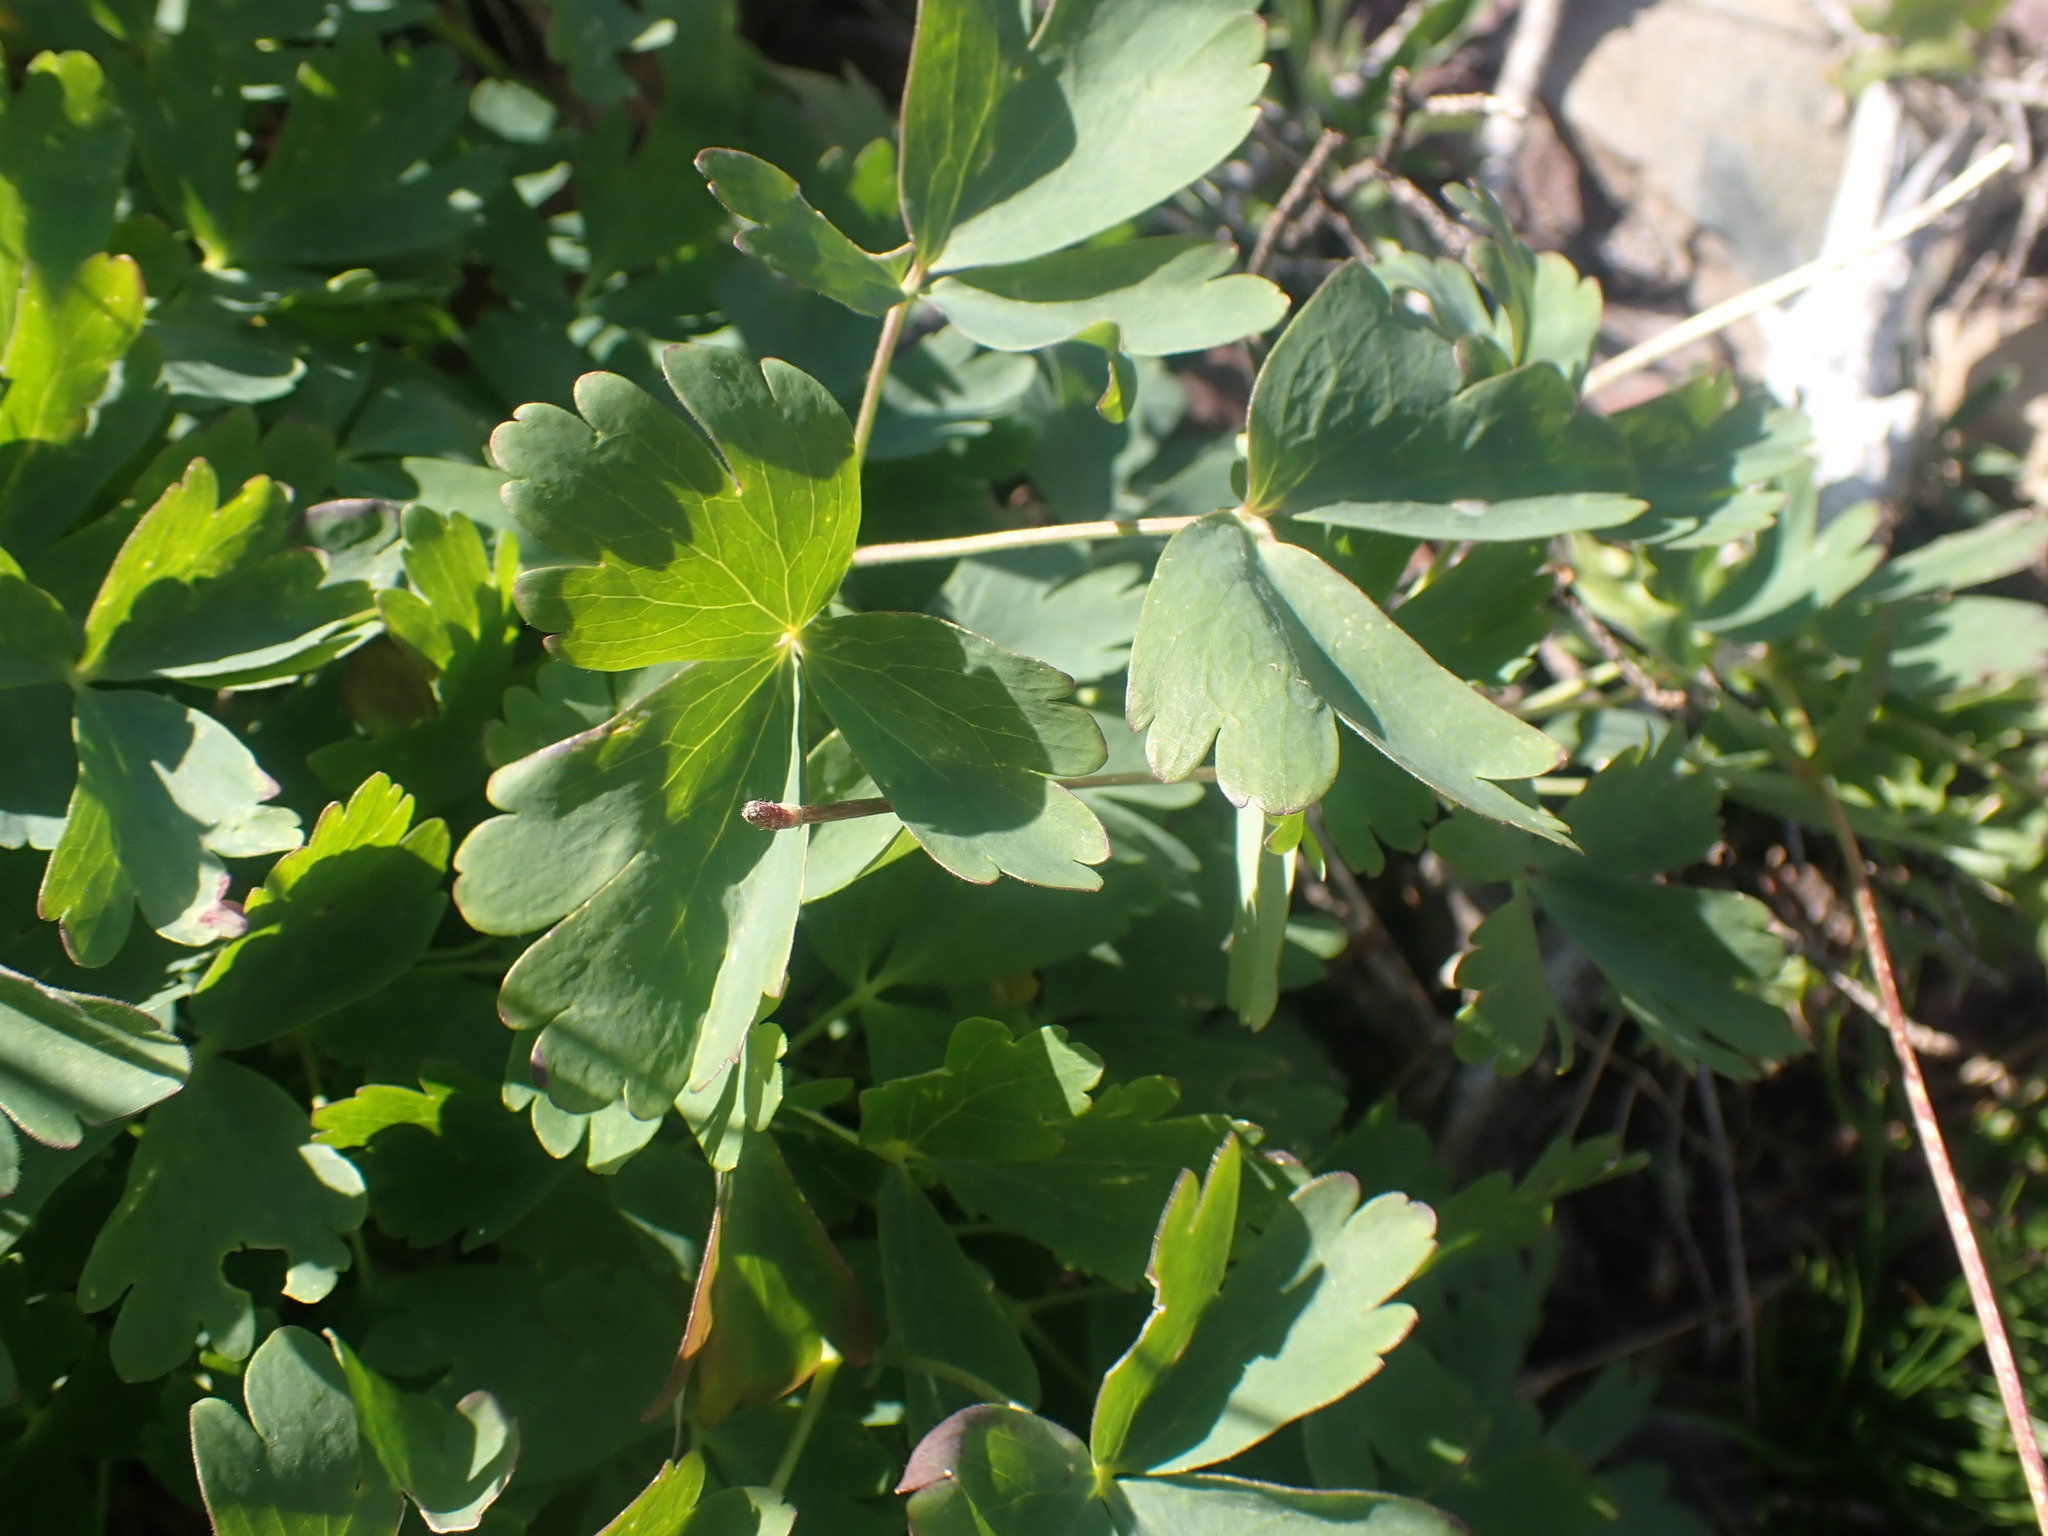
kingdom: Plantae
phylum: Tracheophyta
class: Magnoliopsida
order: Ranunculales
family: Ranunculaceae
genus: Aquilegia
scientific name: Aquilegia flavescens
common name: Yellow columbine
